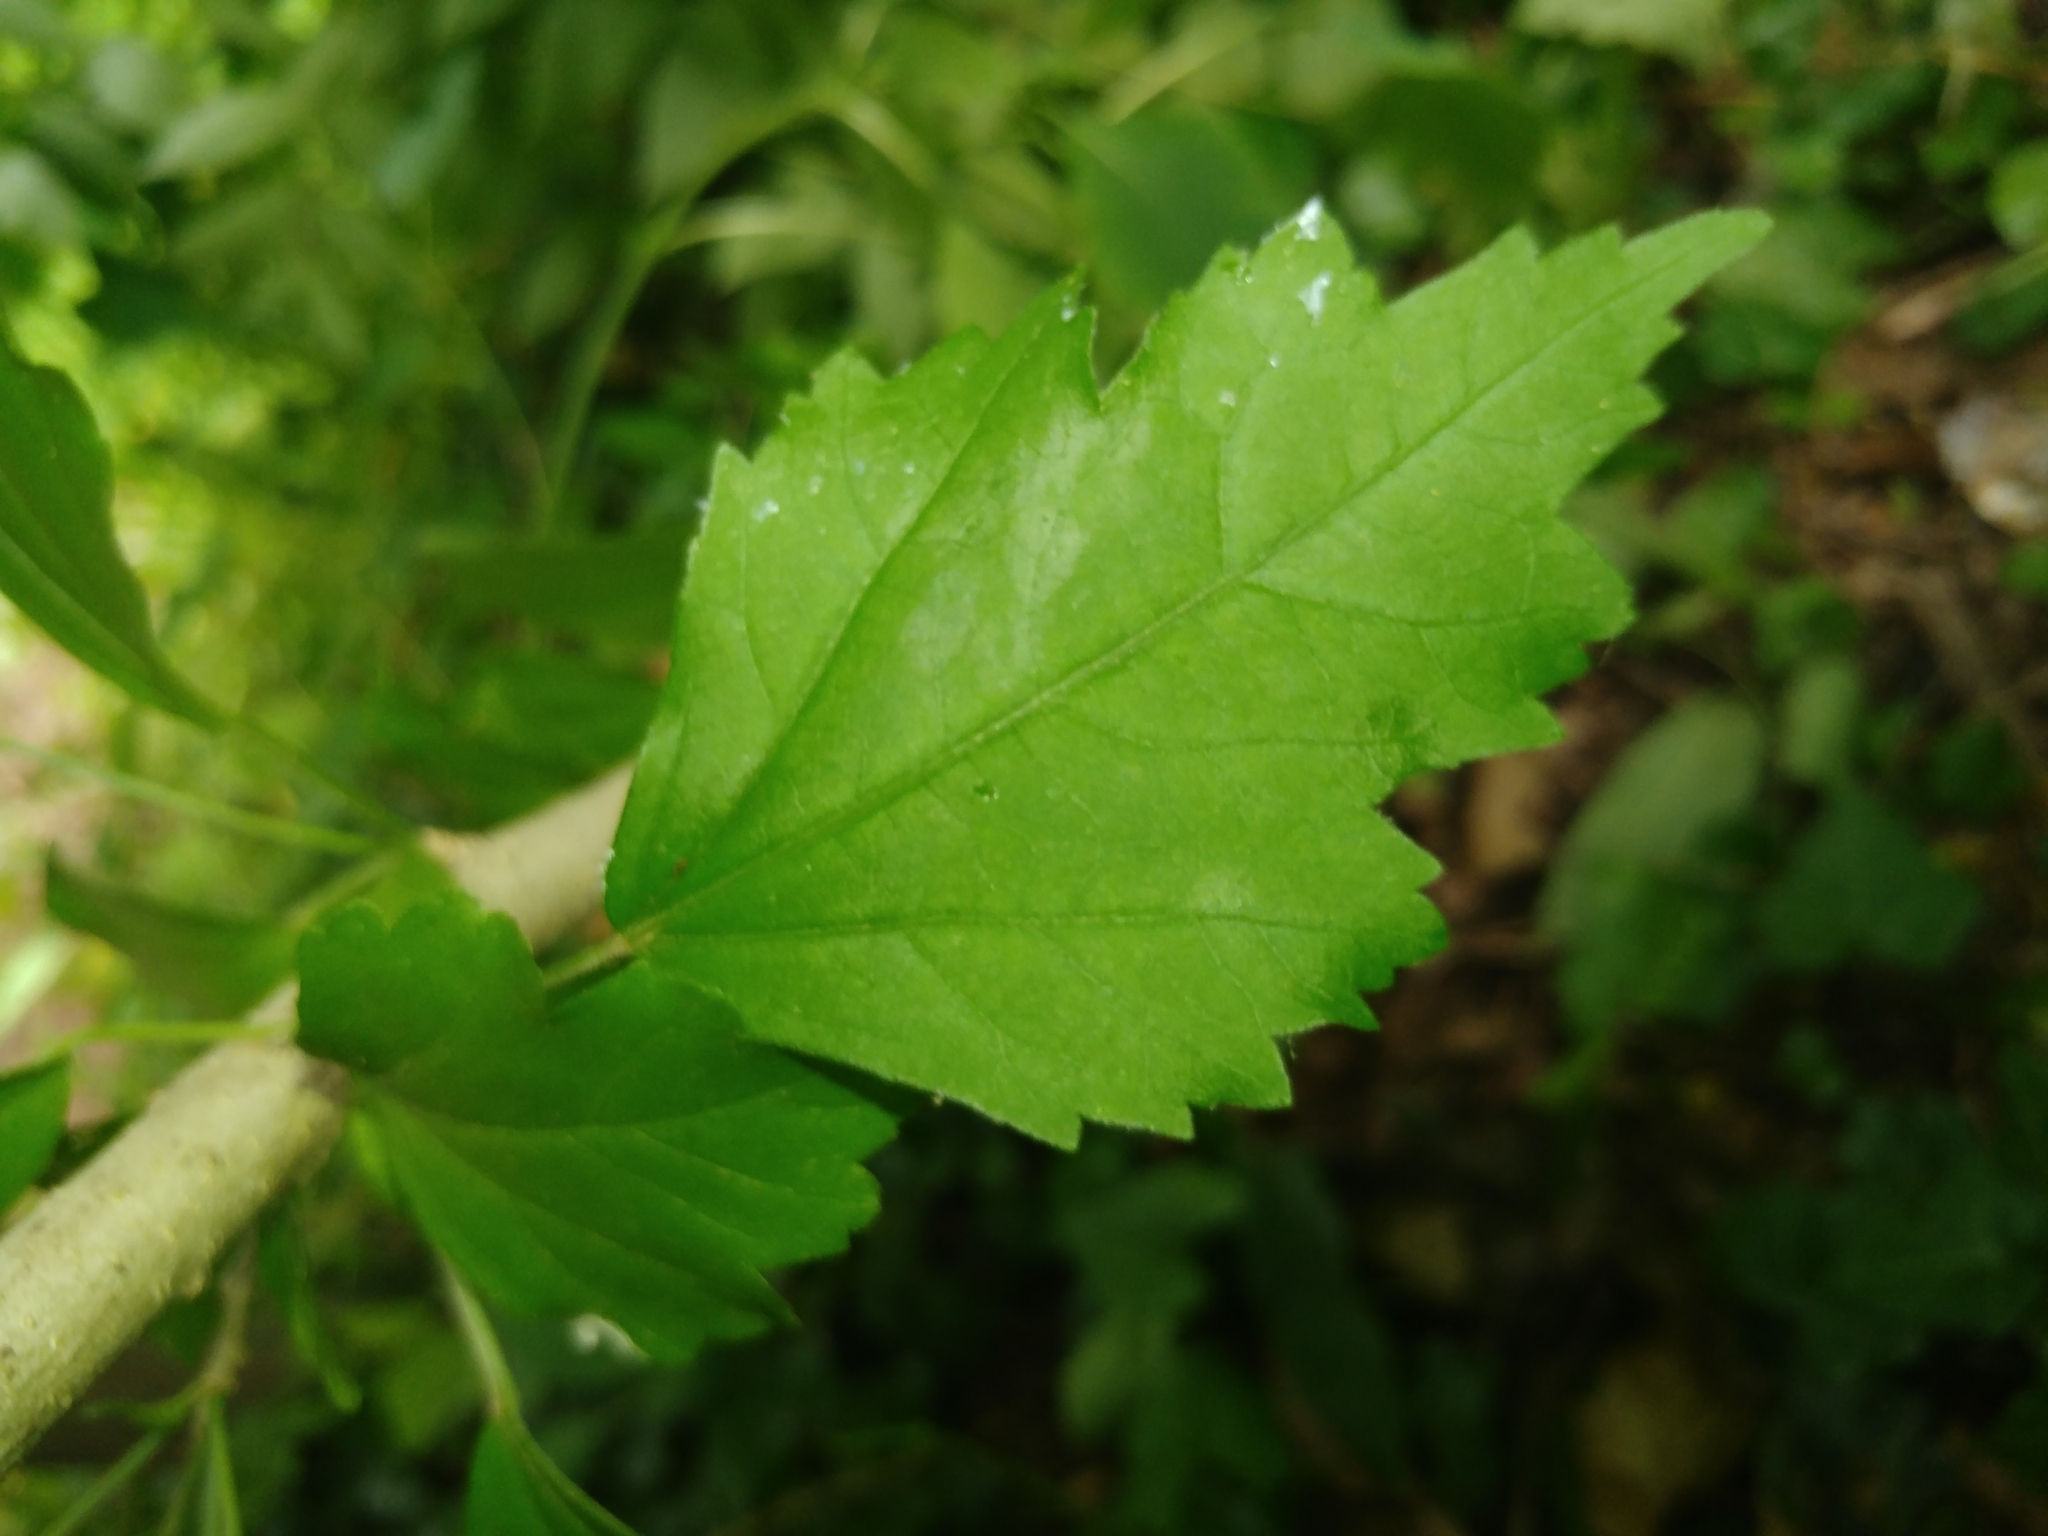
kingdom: Plantae
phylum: Tracheophyta
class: Magnoliopsida
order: Malvales
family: Malvaceae
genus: Hibiscus
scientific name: Hibiscus syriacus
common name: Syrian ketmia
